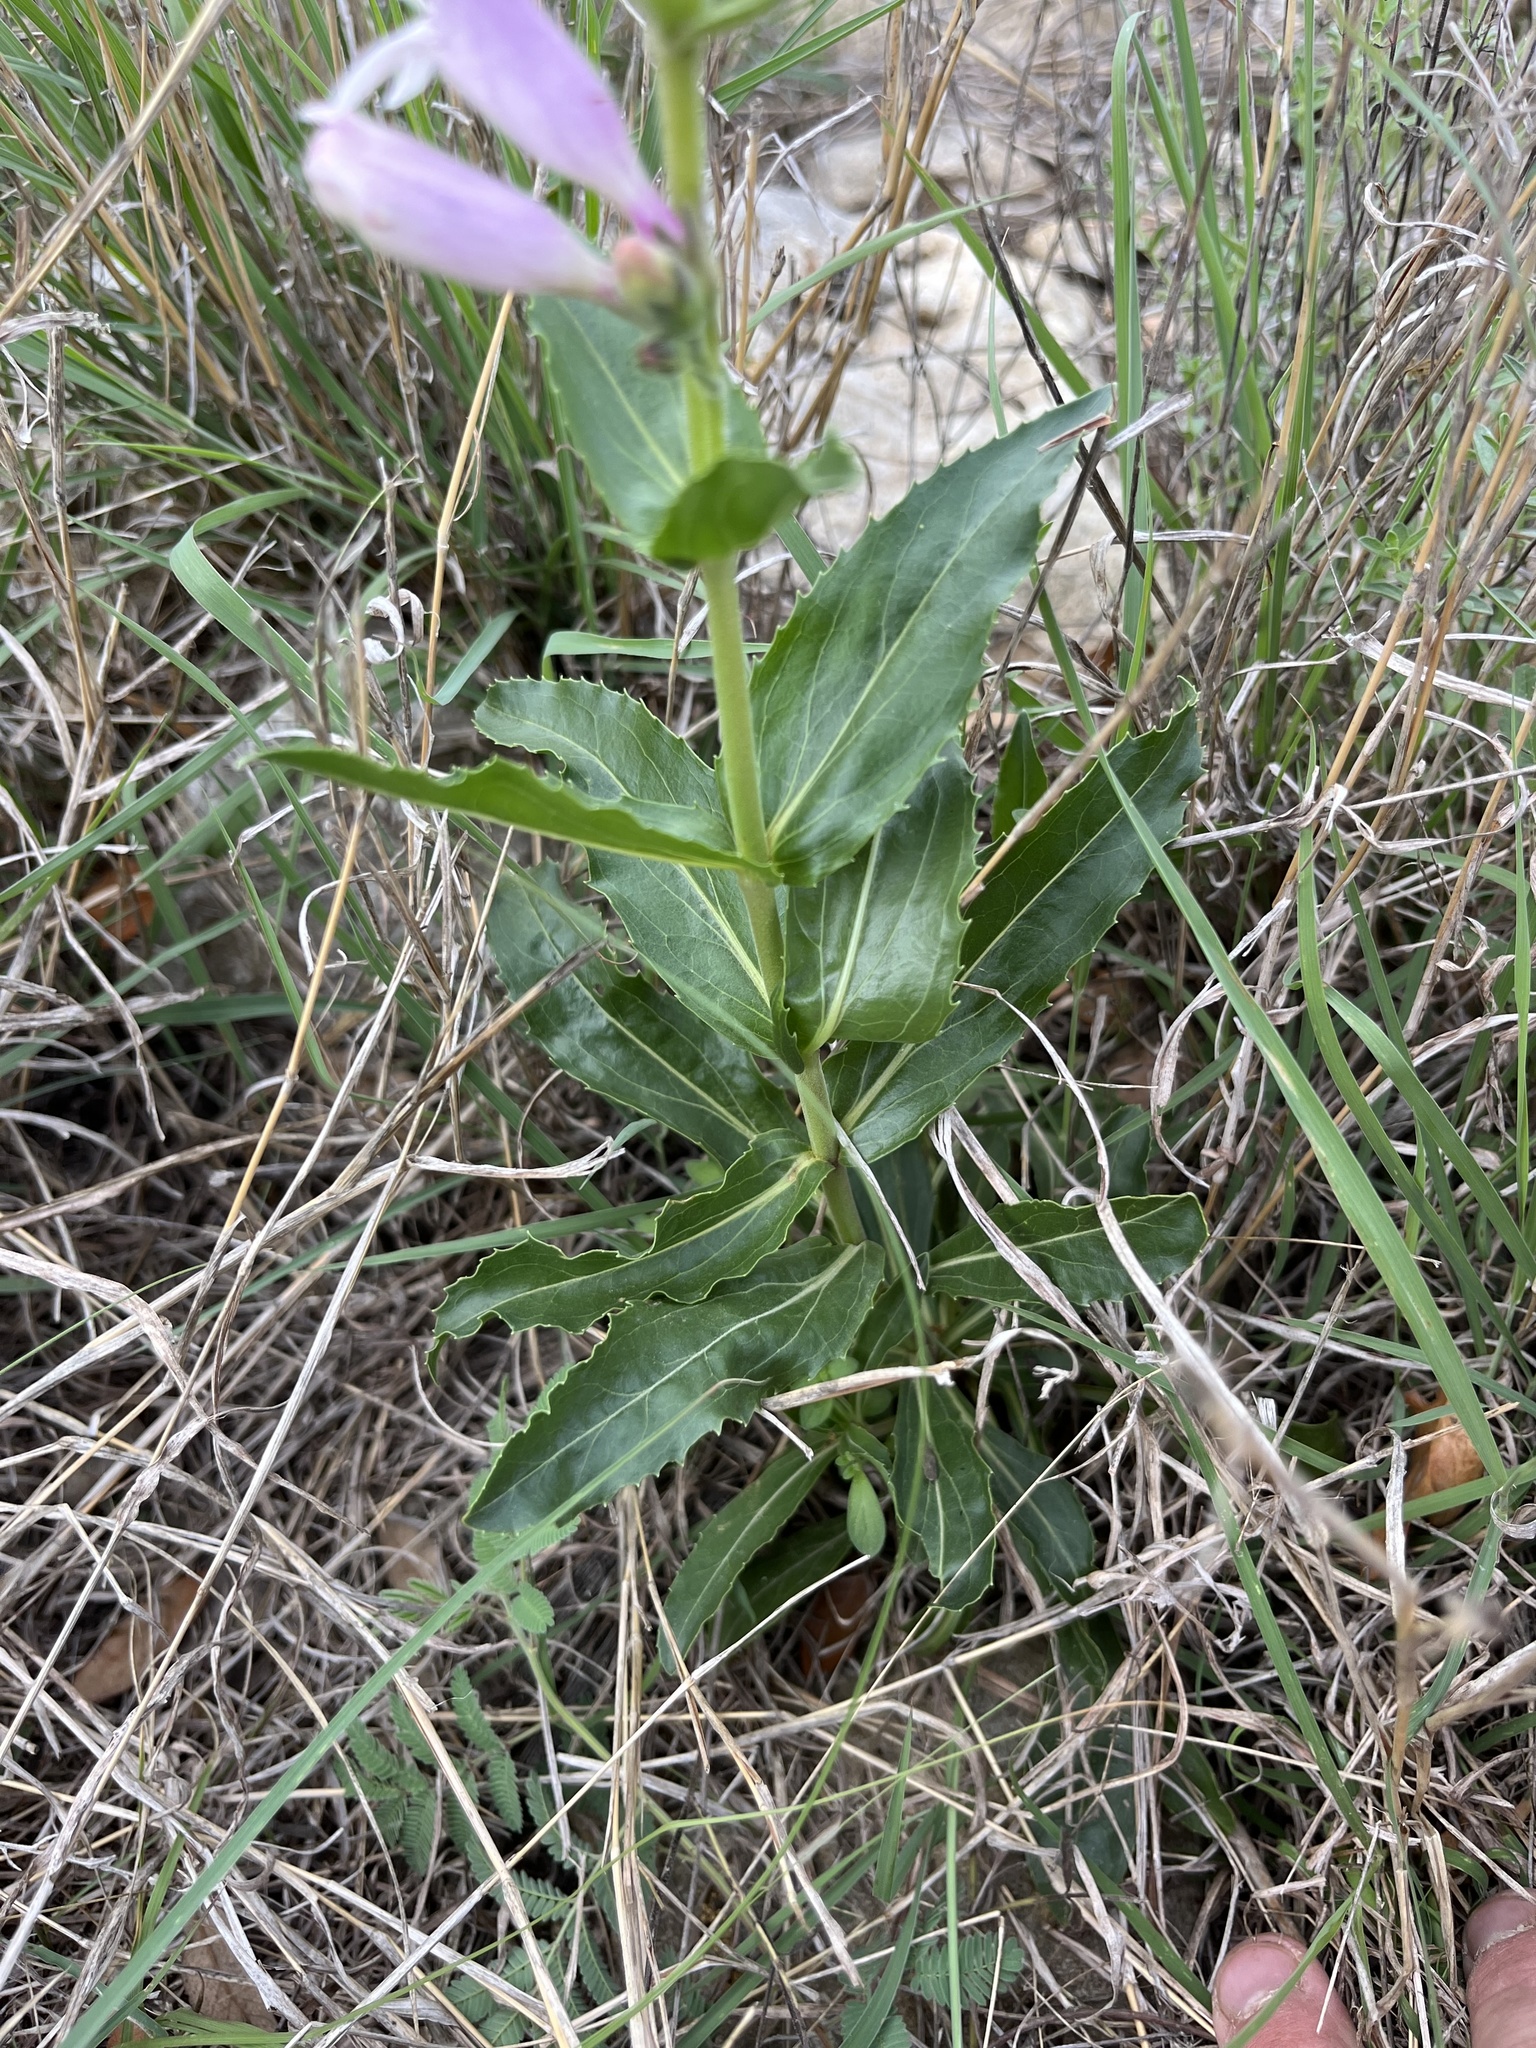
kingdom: Plantae
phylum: Tracheophyta
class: Magnoliopsida
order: Lamiales
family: Plantaginaceae
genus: Penstemon
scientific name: Penstemon cobaea
